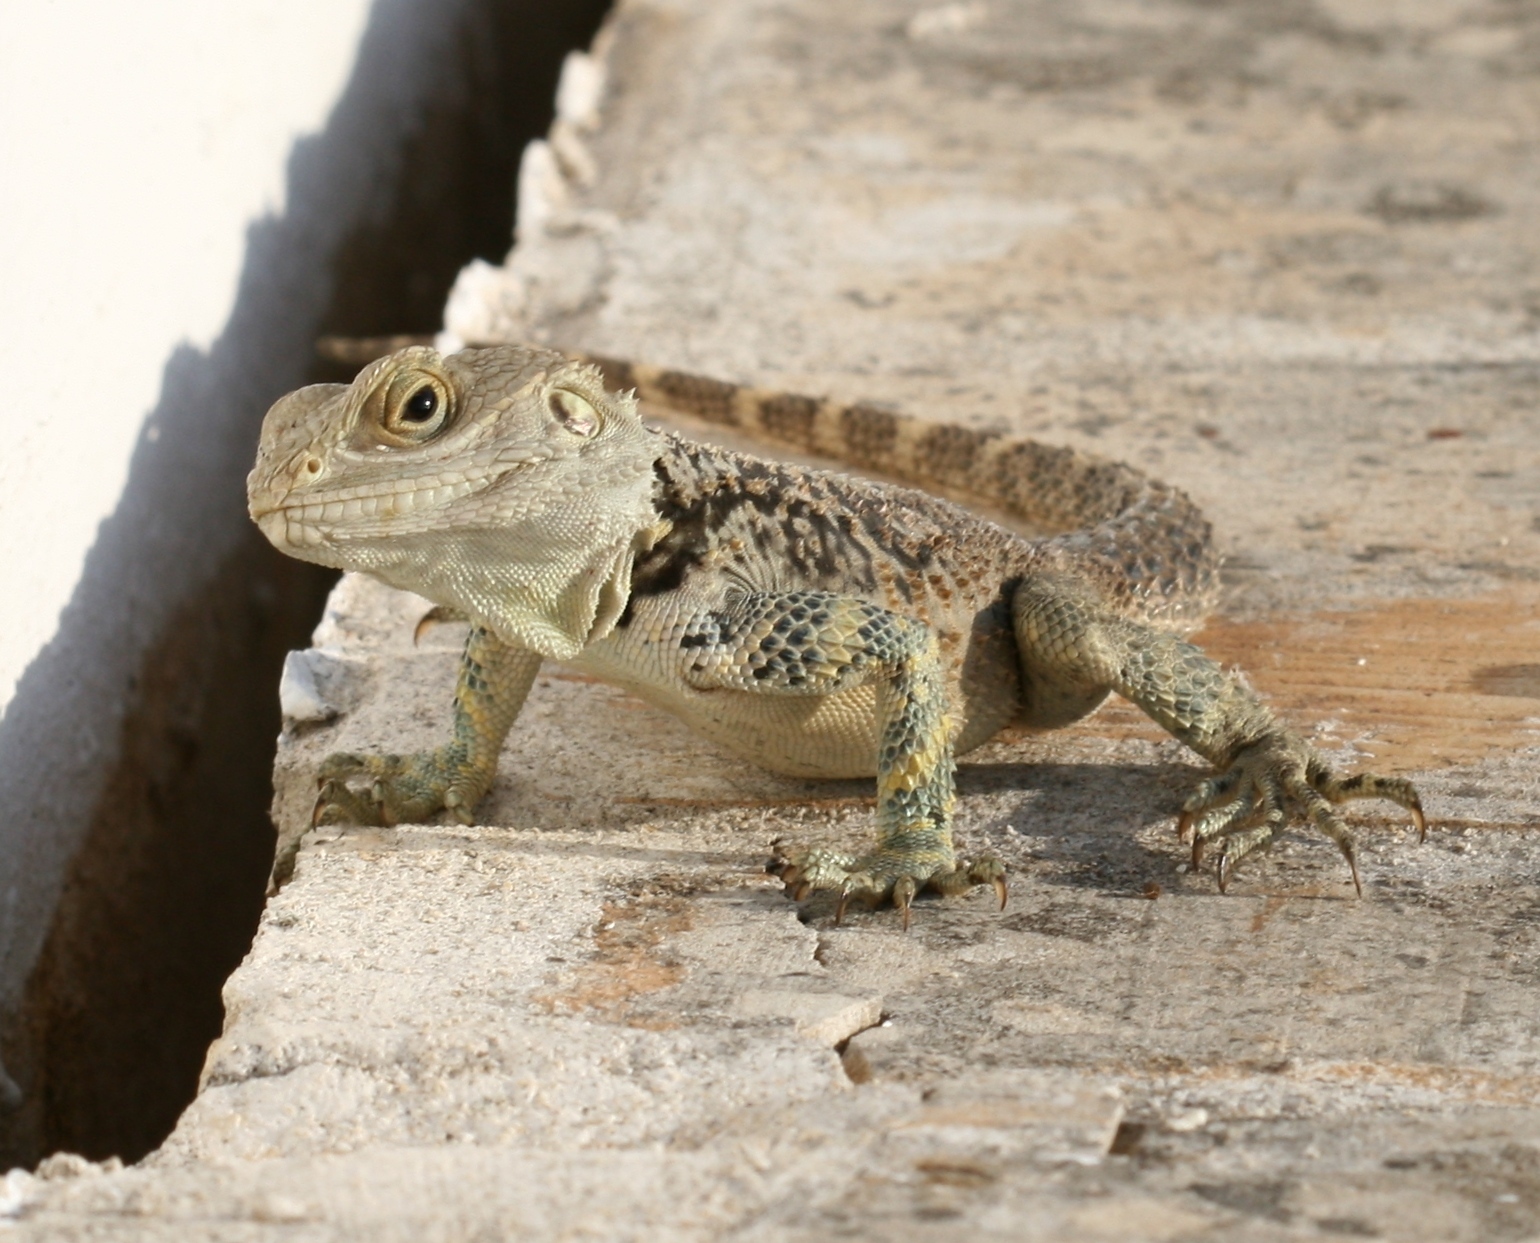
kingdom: Animalia
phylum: Chordata
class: Squamata
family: Agamidae
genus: Laudakia
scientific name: Laudakia
